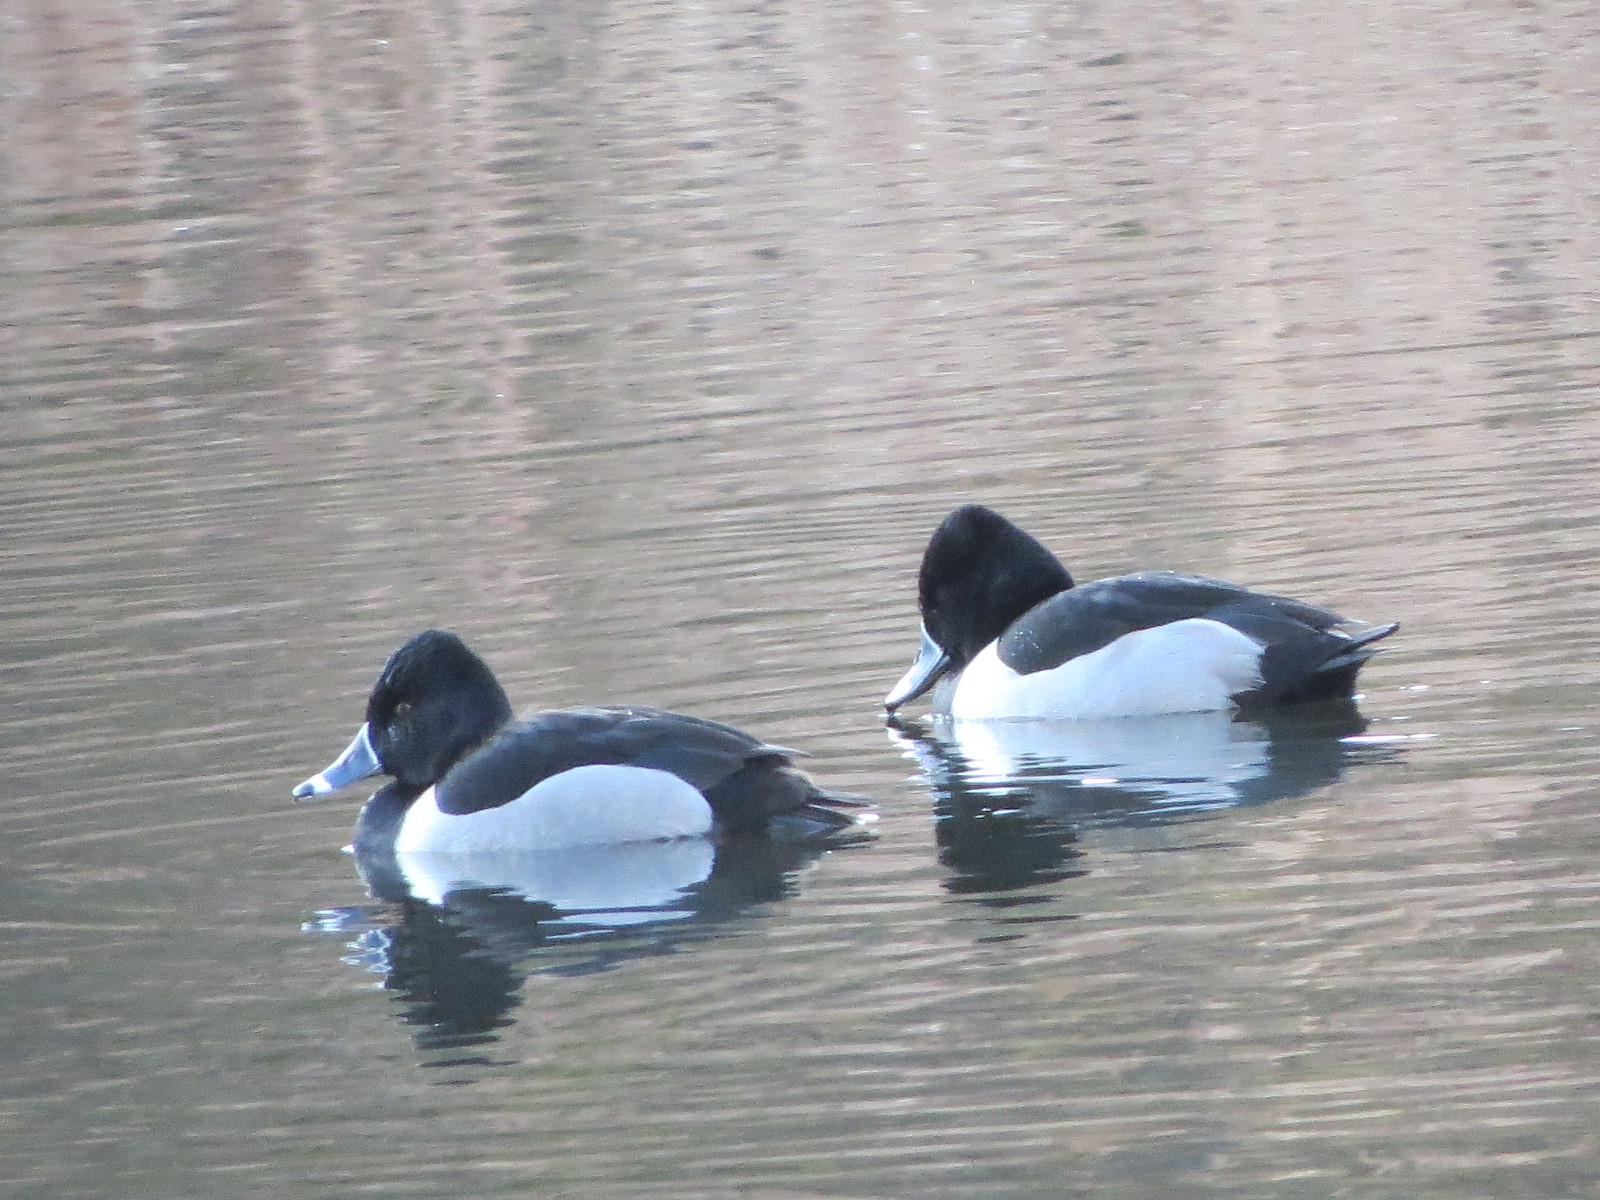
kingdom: Animalia
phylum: Chordata
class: Aves
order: Anseriformes
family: Anatidae
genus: Aythya
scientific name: Aythya collaris
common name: Ring-necked duck
